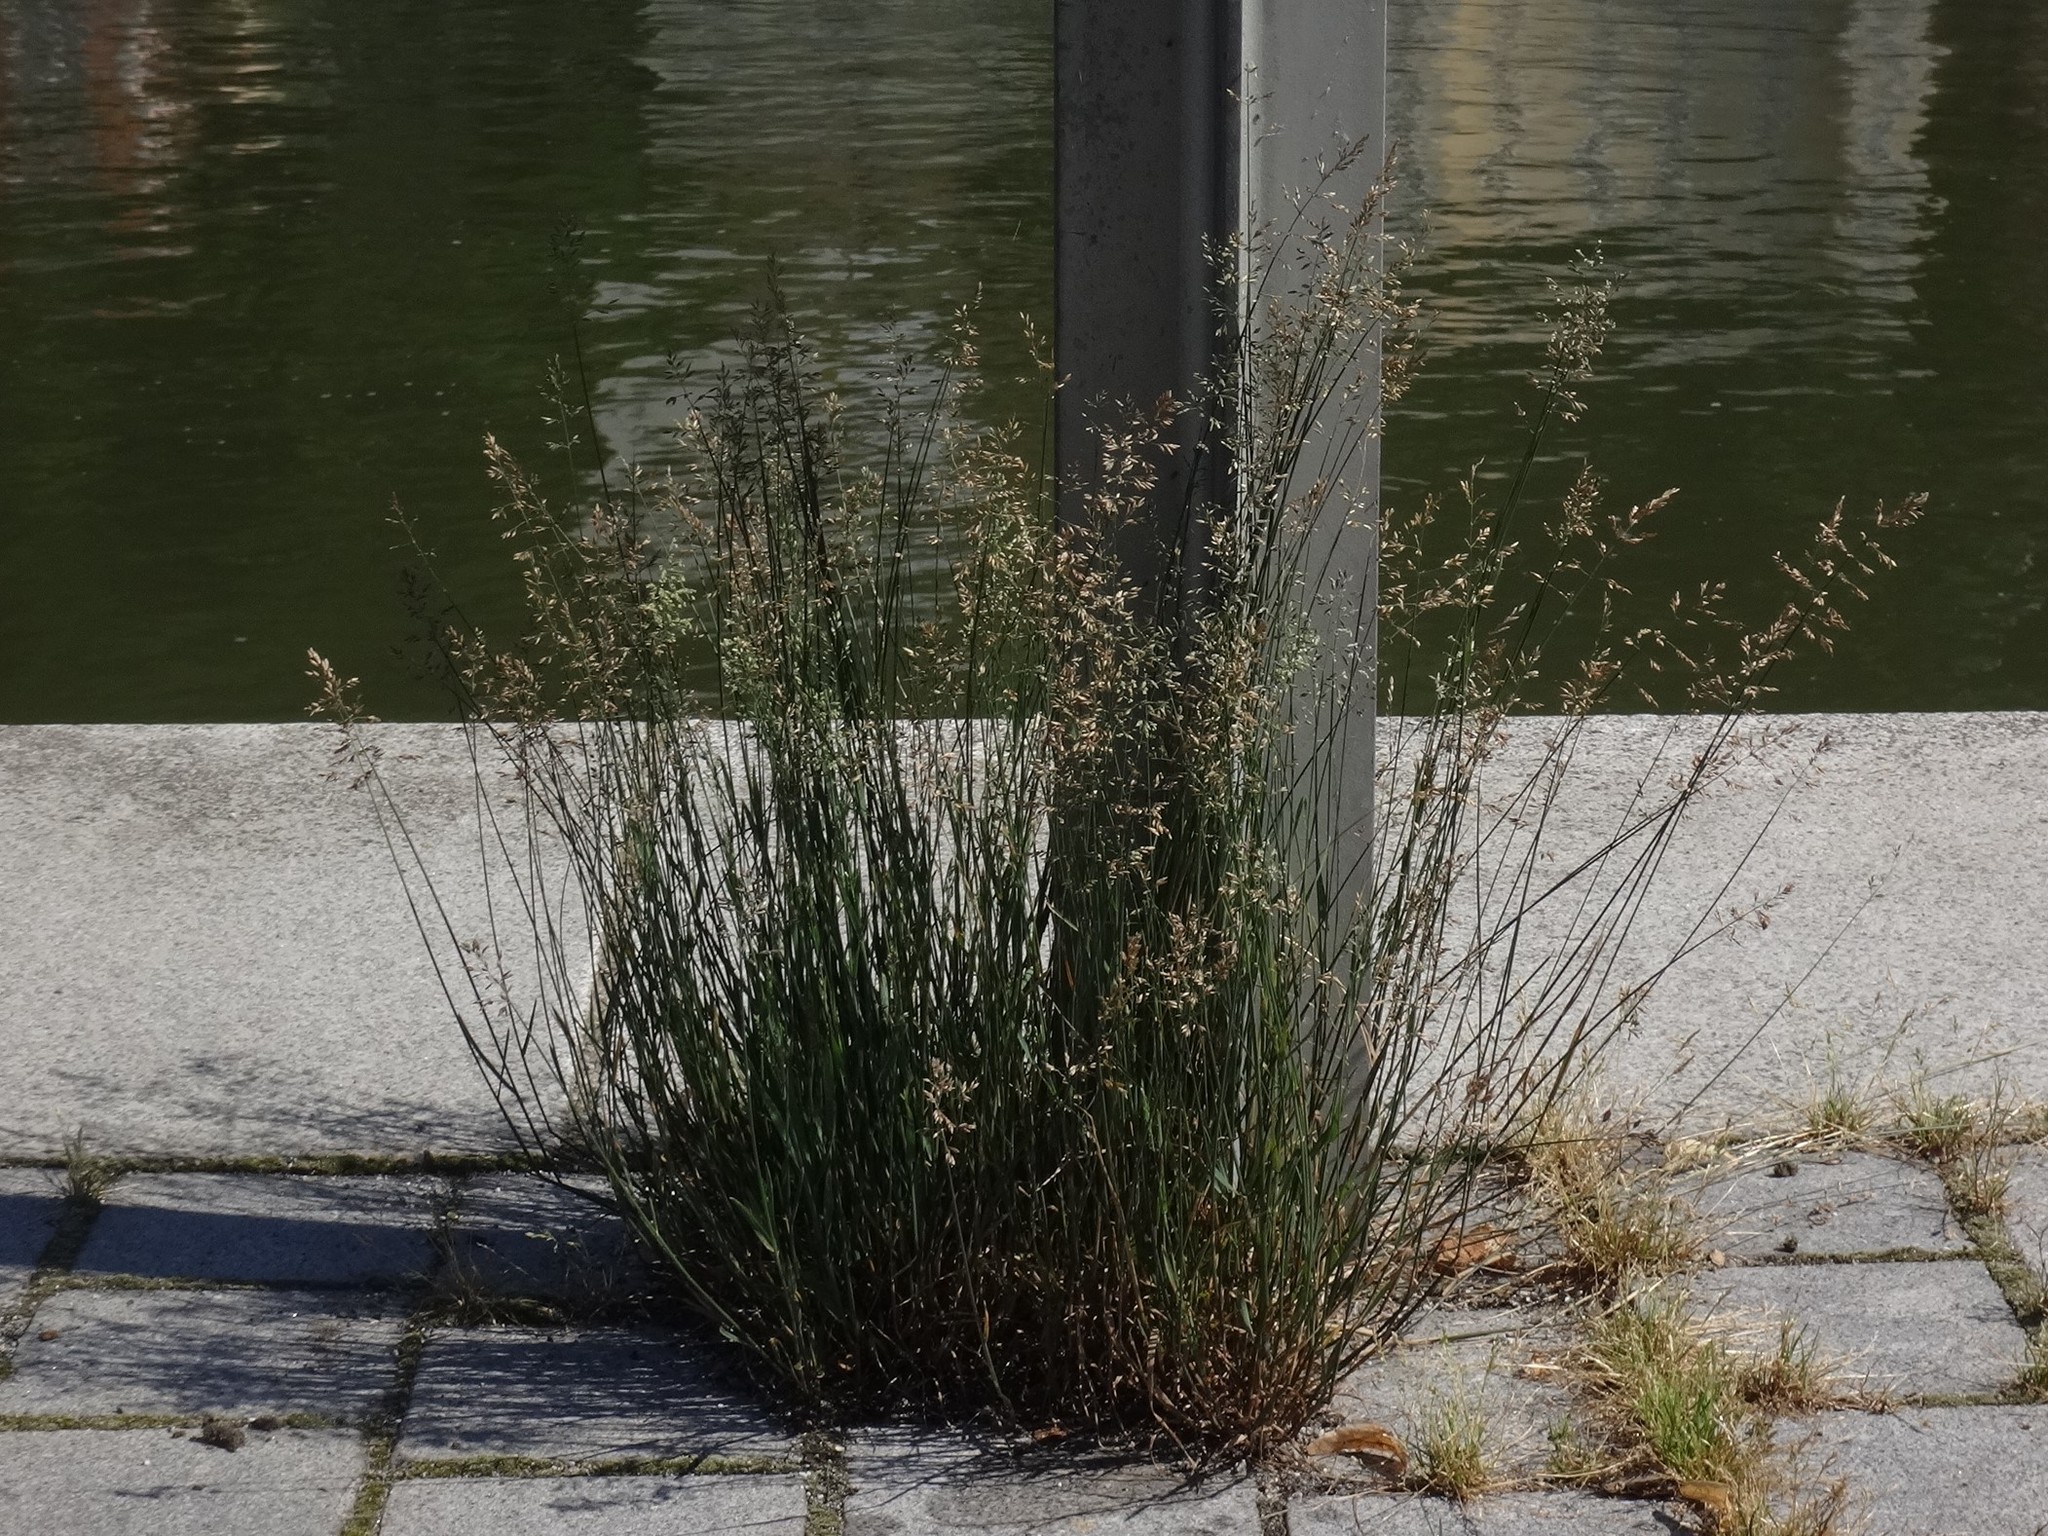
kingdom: Plantae
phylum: Tracheophyta
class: Liliopsida
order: Poales
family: Poaceae
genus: Poa
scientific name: Poa compressa
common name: Canada bluegrass
